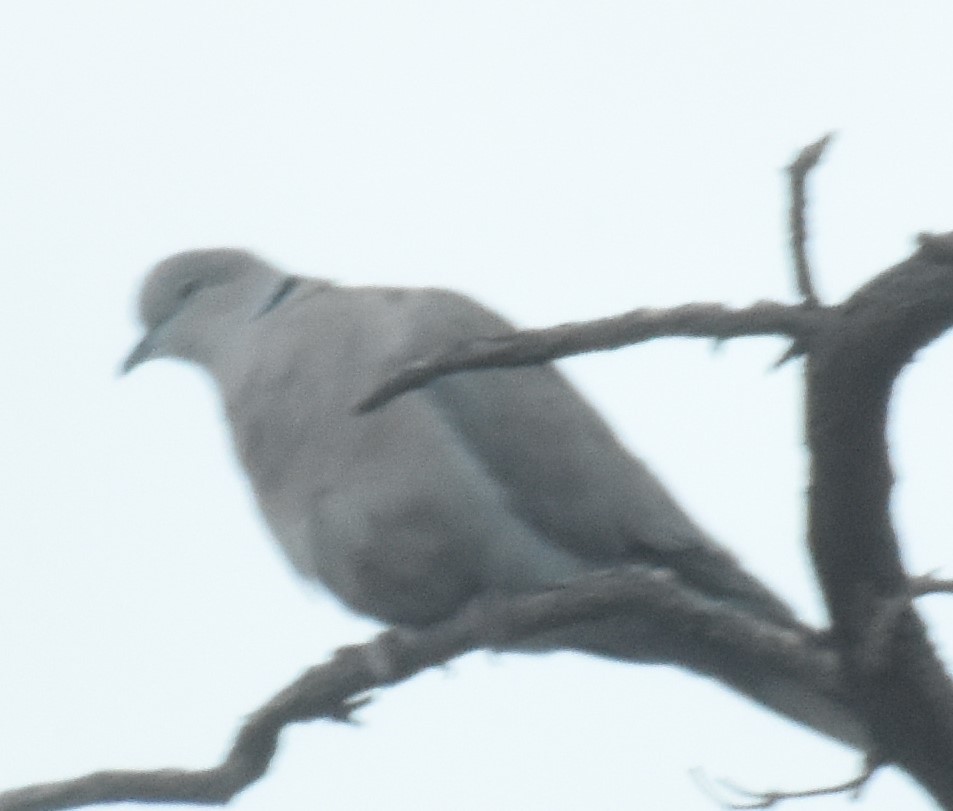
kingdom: Animalia
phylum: Chordata
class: Aves
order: Columbiformes
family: Columbidae
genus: Streptopelia
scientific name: Streptopelia decaocto
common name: Eurasian collared dove
